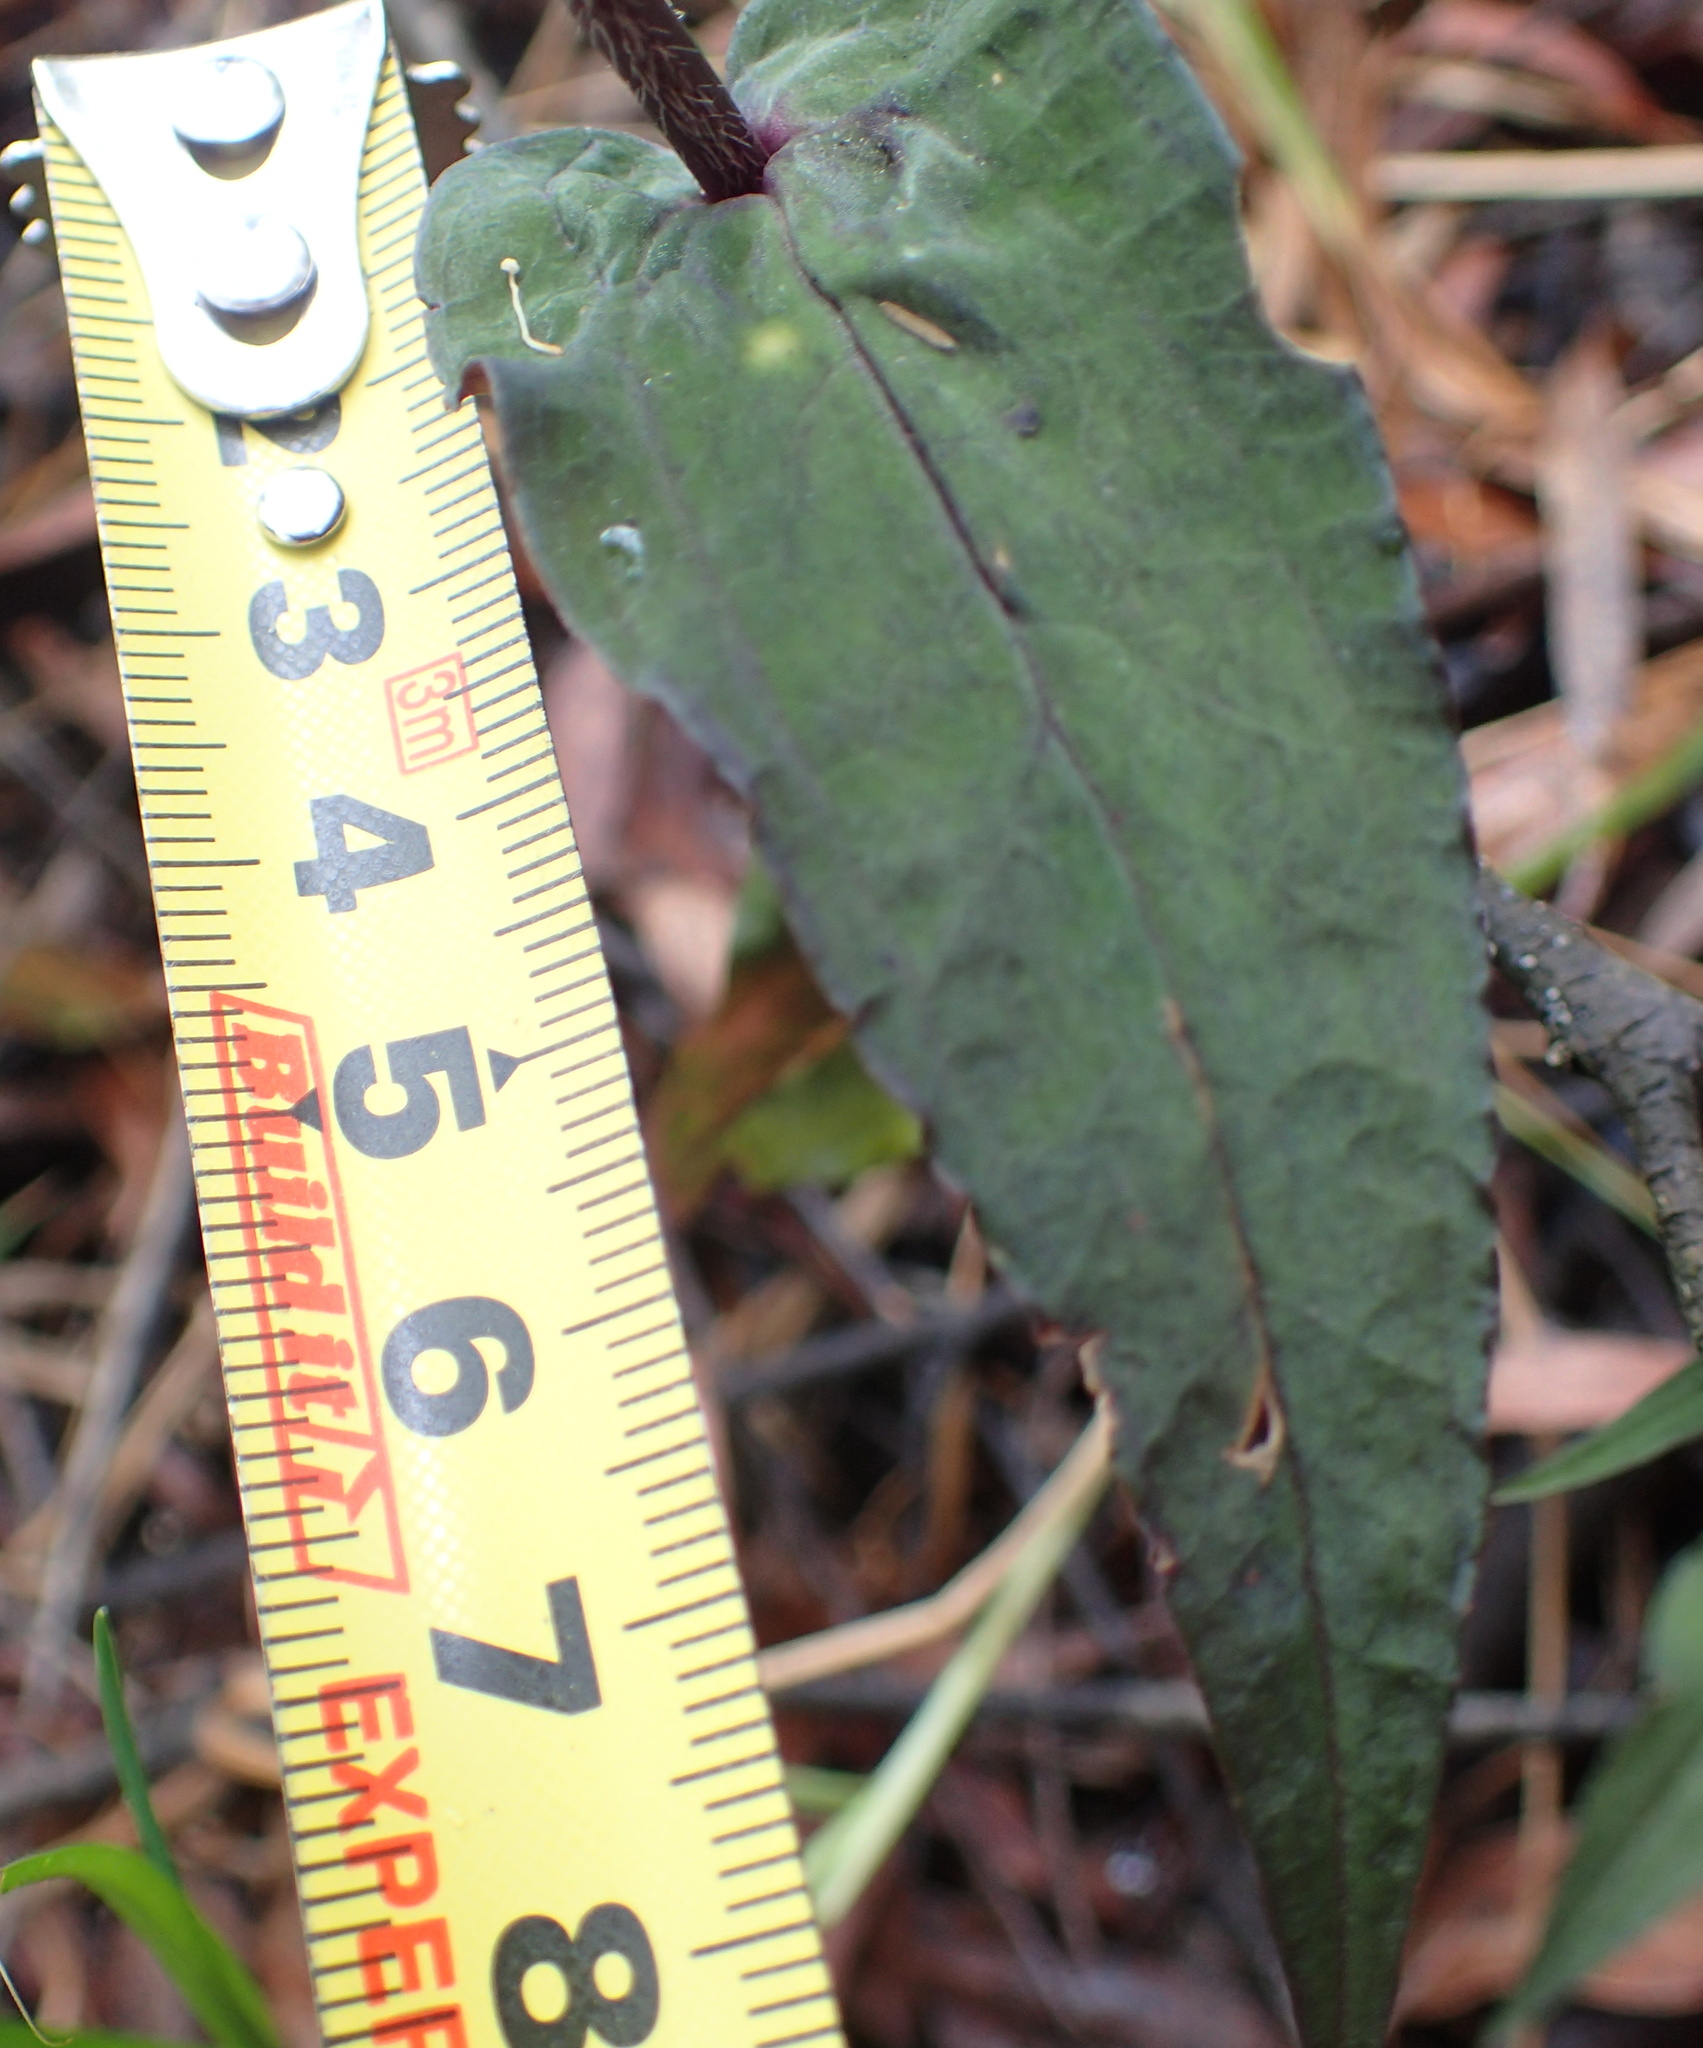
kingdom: Plantae
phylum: Tracheophyta
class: Liliopsida
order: Asparagales
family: Orchidaceae
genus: Disperis
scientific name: Disperis fanniniae
